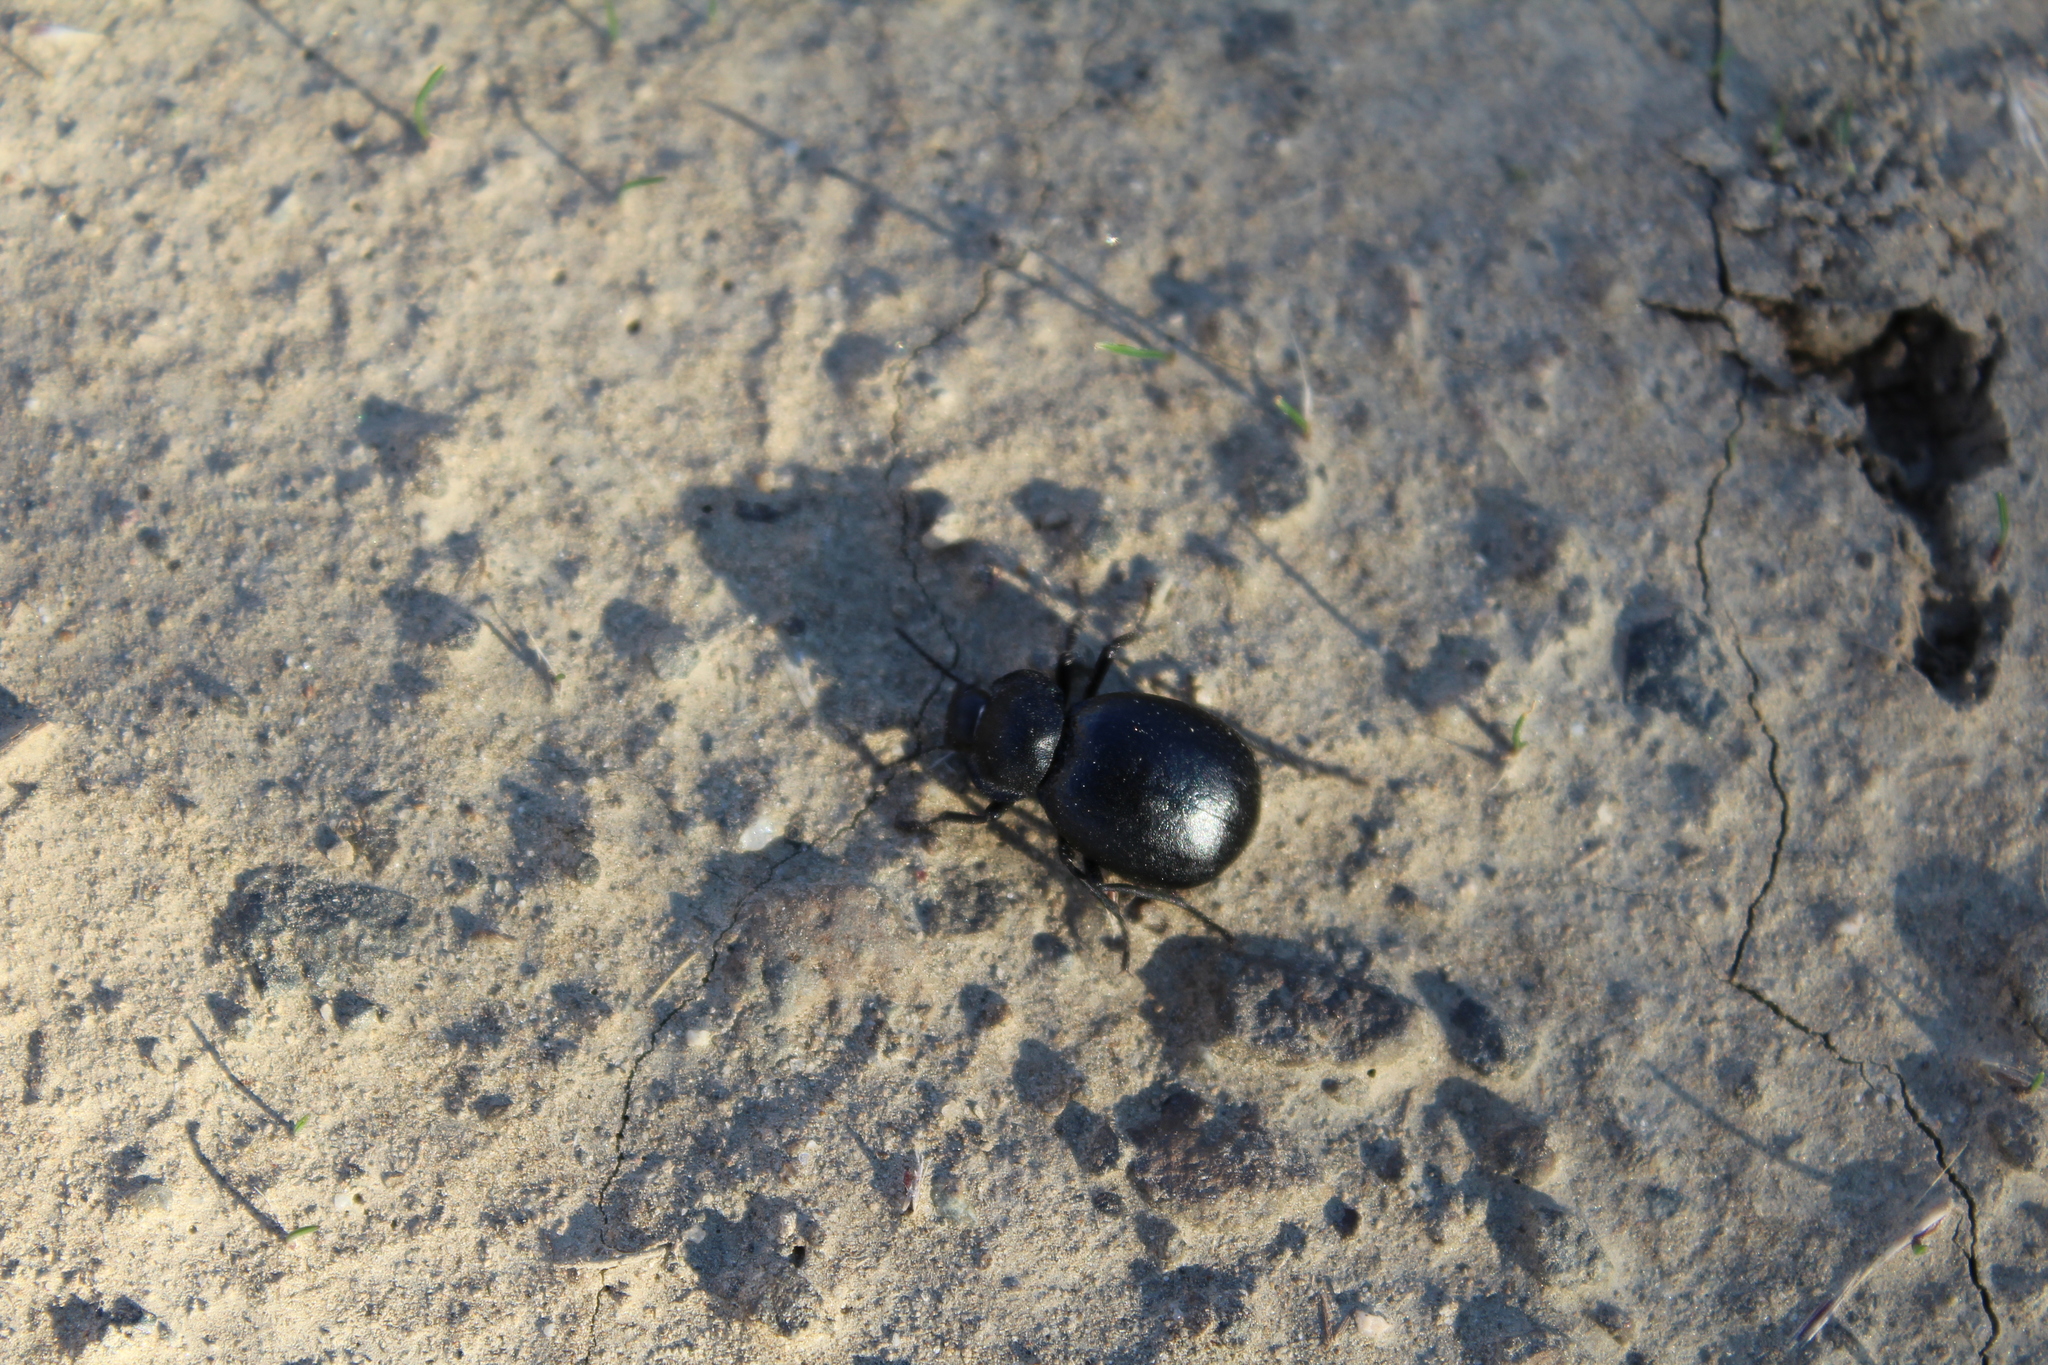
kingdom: Animalia
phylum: Arthropoda
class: Insecta
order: Coleoptera
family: Tenebrionidae
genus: Stenomorpha
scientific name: Stenomorpha puncticollis
